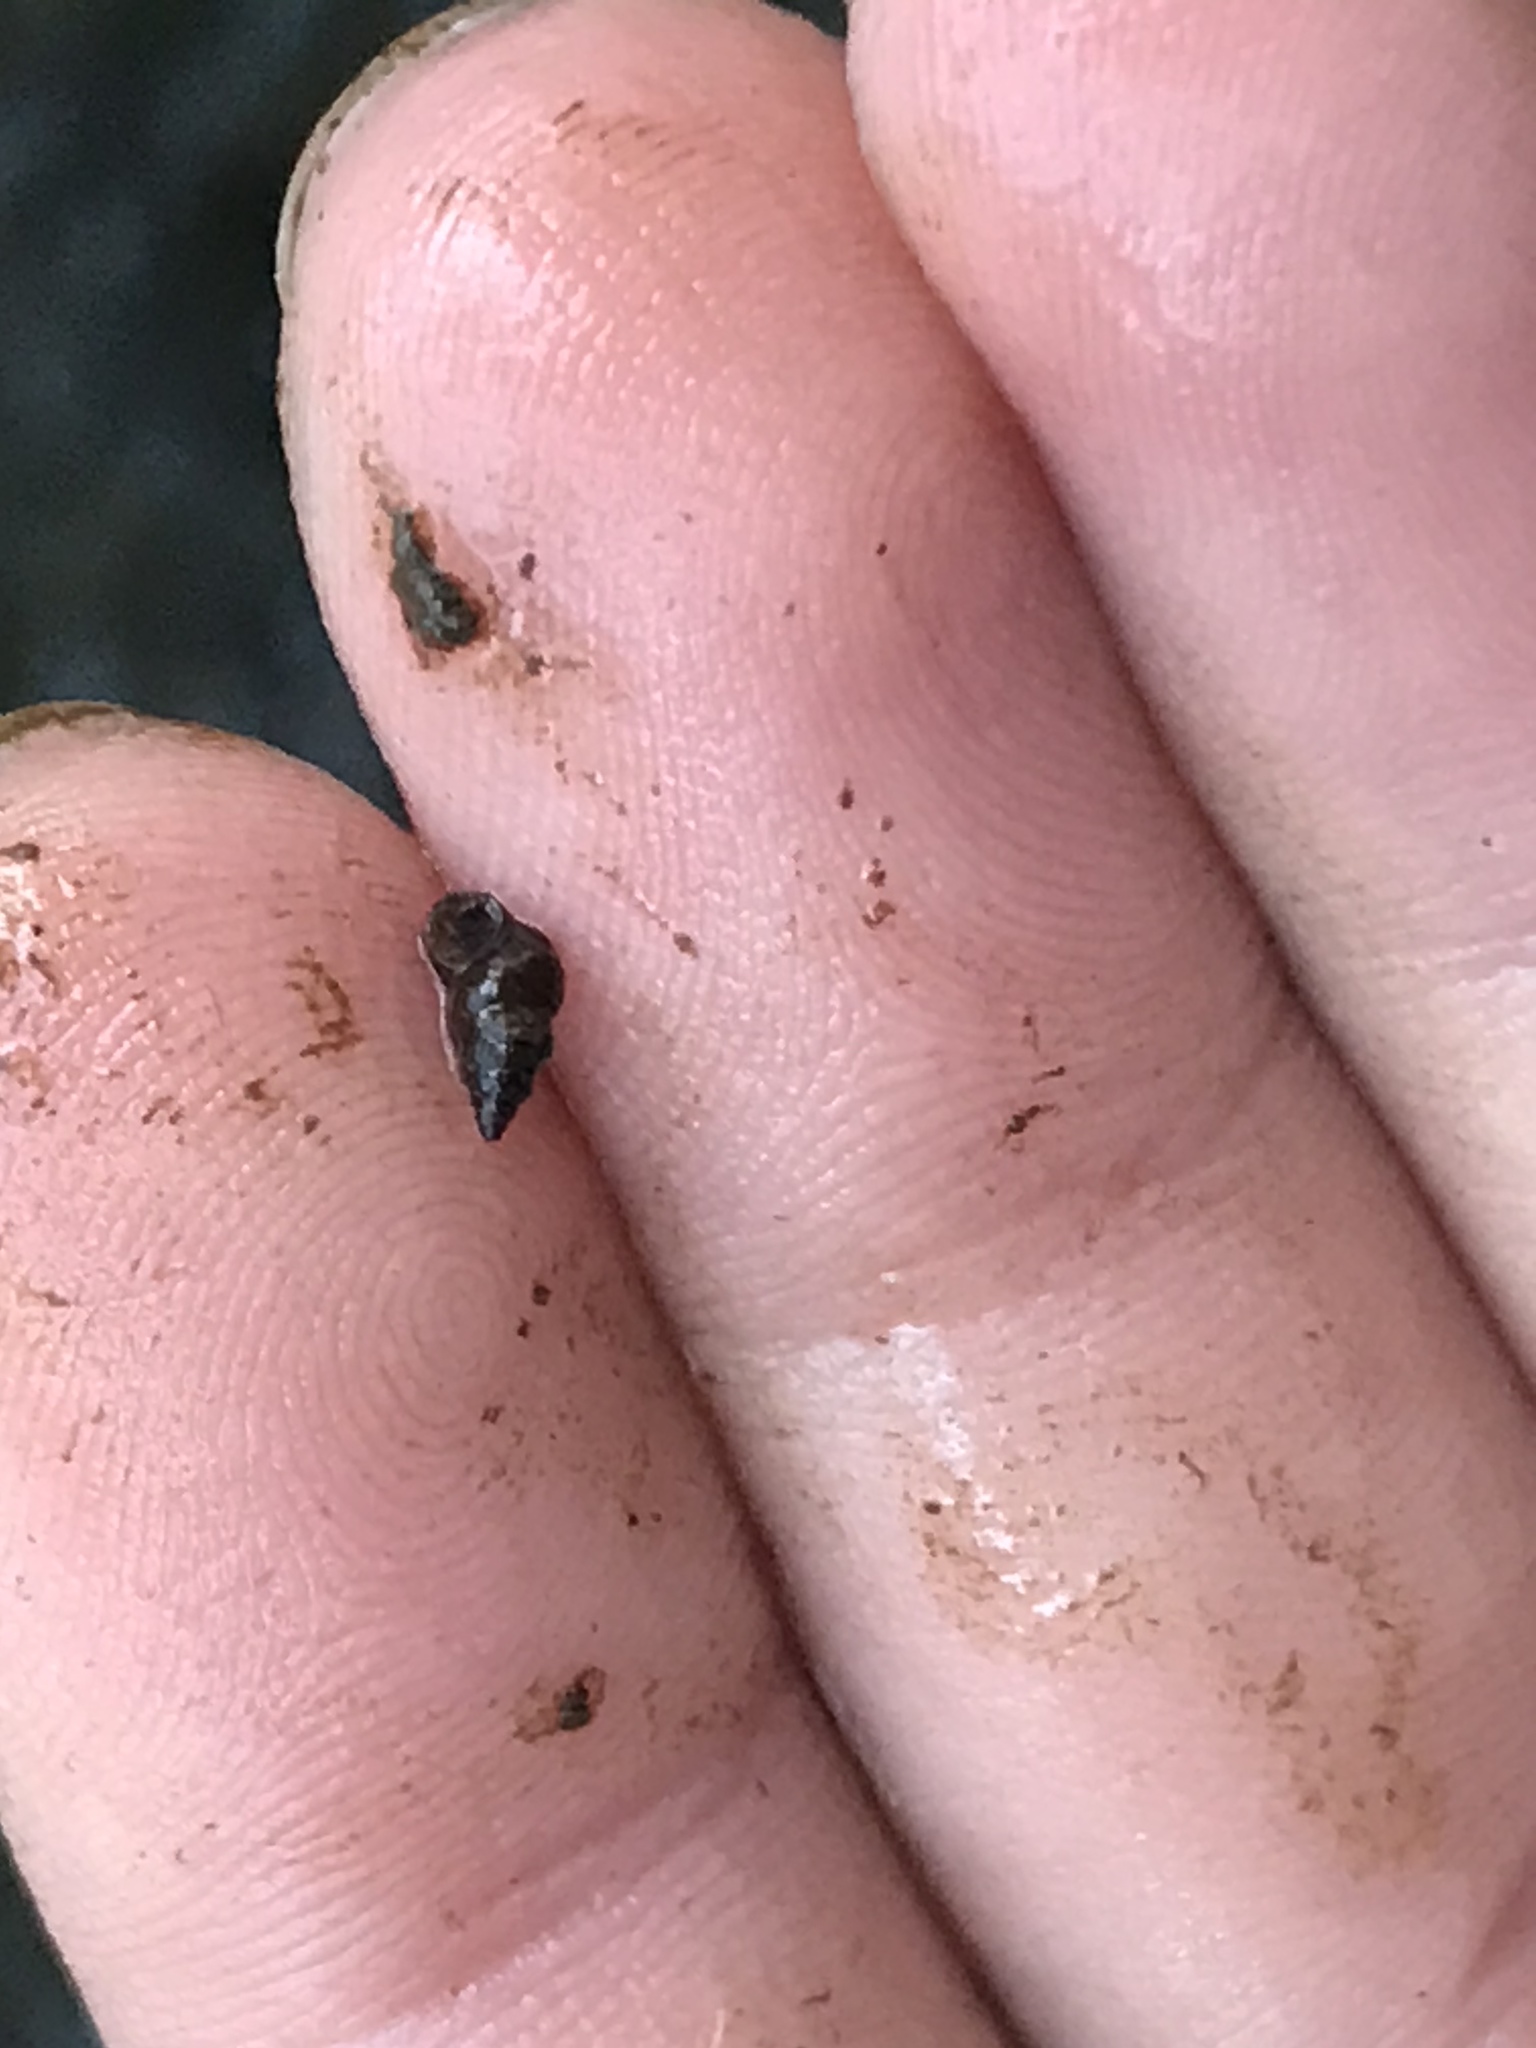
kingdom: Animalia
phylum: Mollusca
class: Gastropoda
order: Littorinimorpha
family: Tateidae
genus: Potamopyrgus
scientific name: Potamopyrgus antipodarum
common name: Jenkins' spire snail
